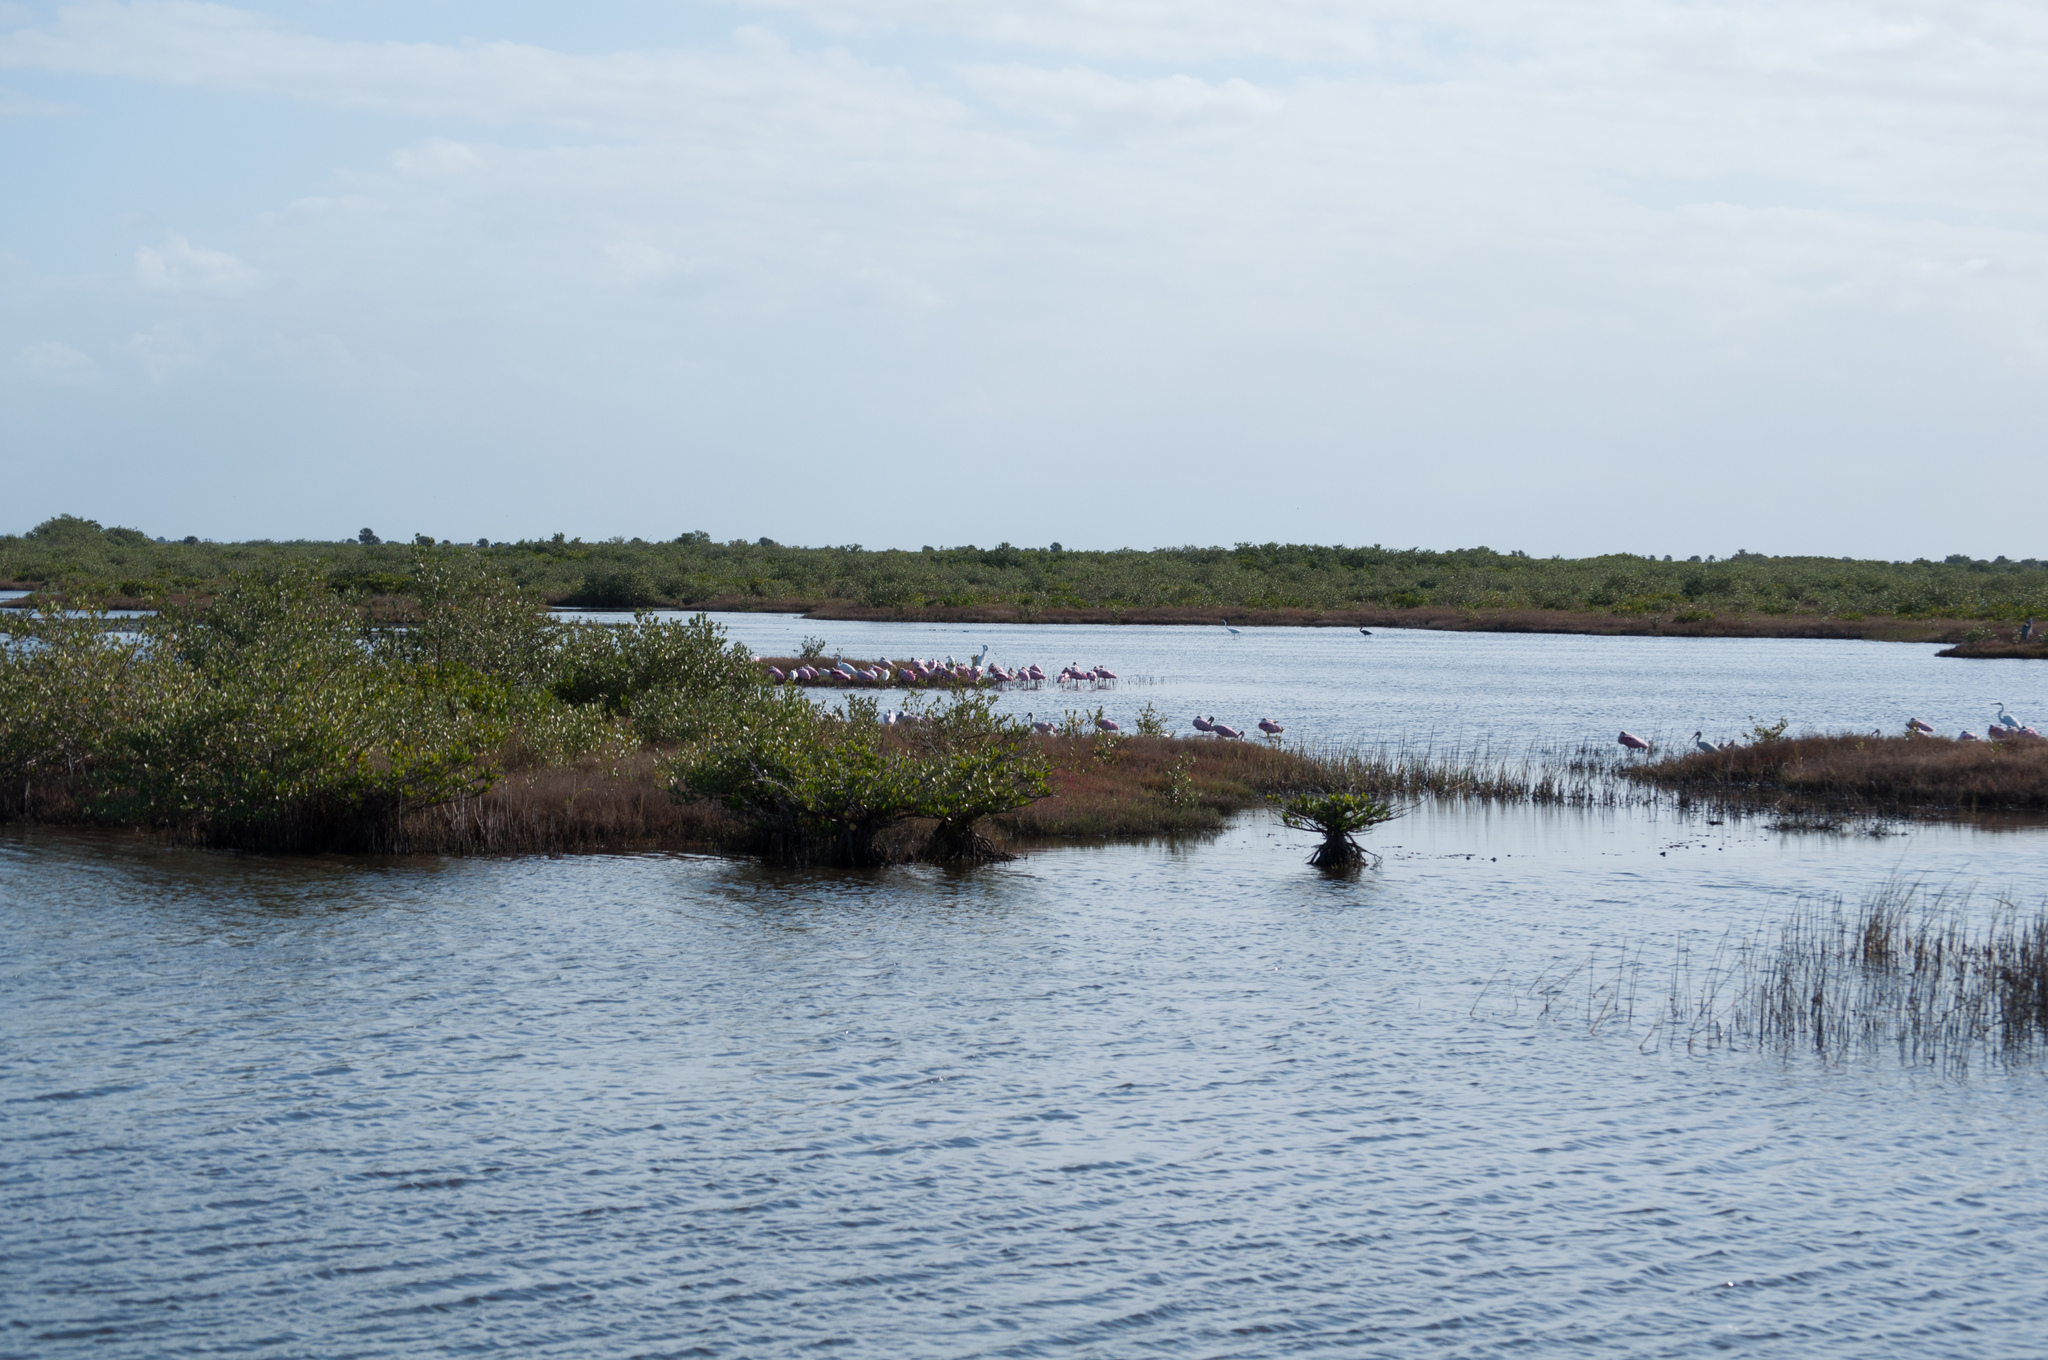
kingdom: Animalia
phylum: Chordata
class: Aves
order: Pelecaniformes
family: Threskiornithidae
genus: Platalea
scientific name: Platalea ajaja
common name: Roseate spoonbill
